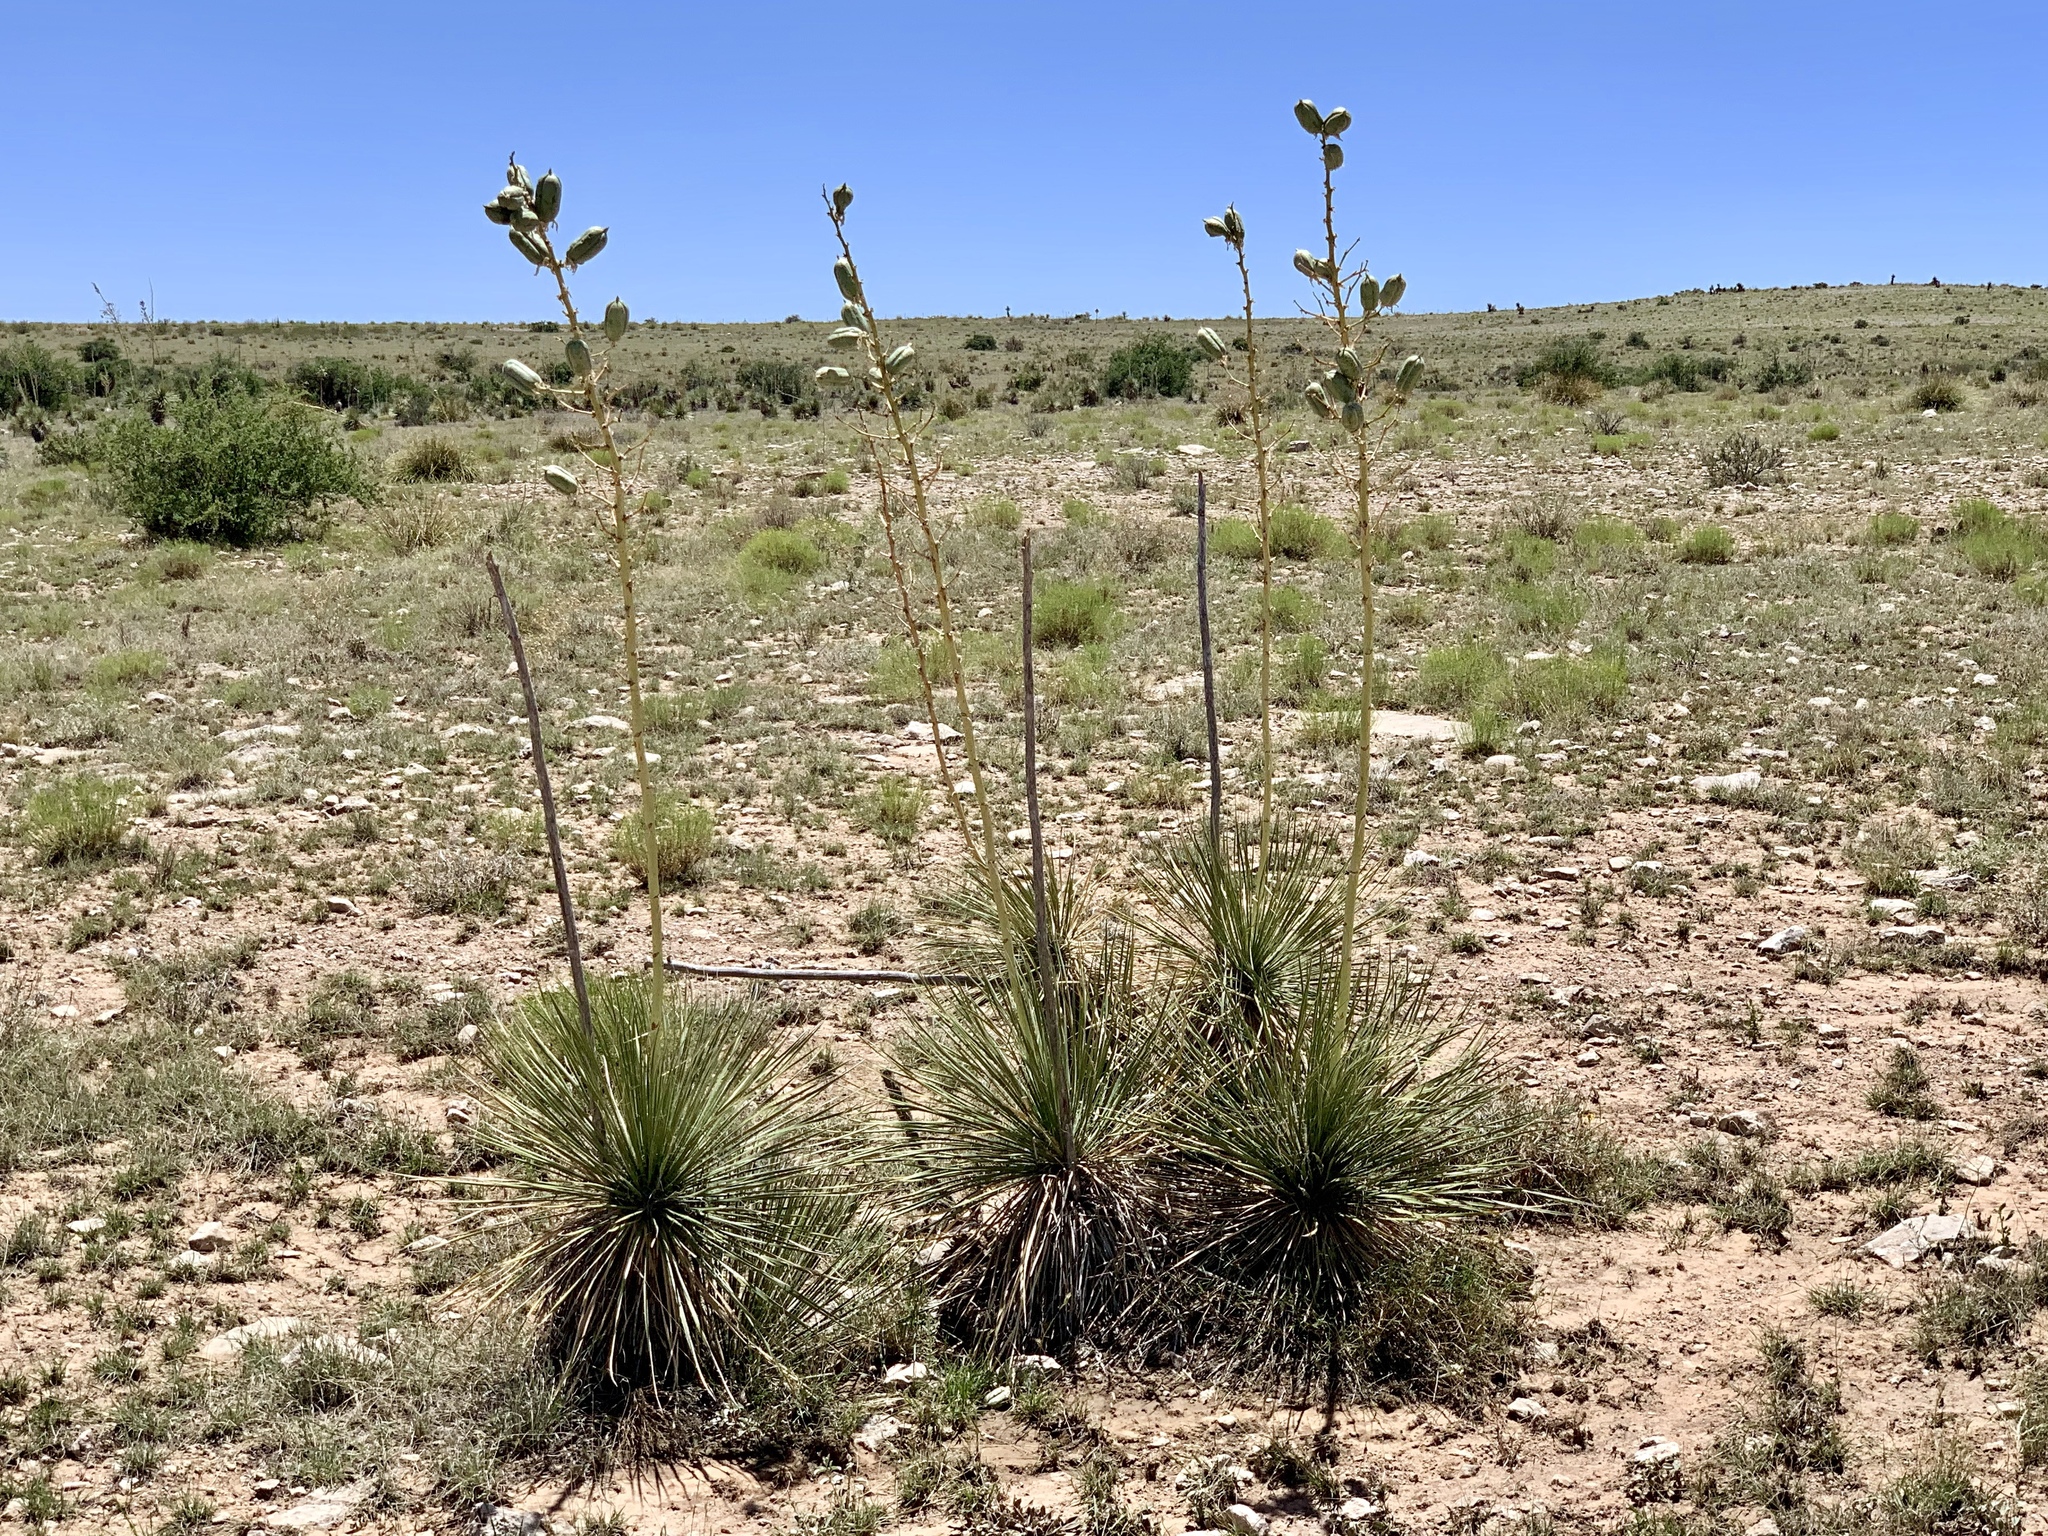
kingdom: Plantae
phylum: Tracheophyta
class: Liliopsida
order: Asparagales
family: Asparagaceae
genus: Yucca
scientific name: Yucca elata
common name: Palmella
